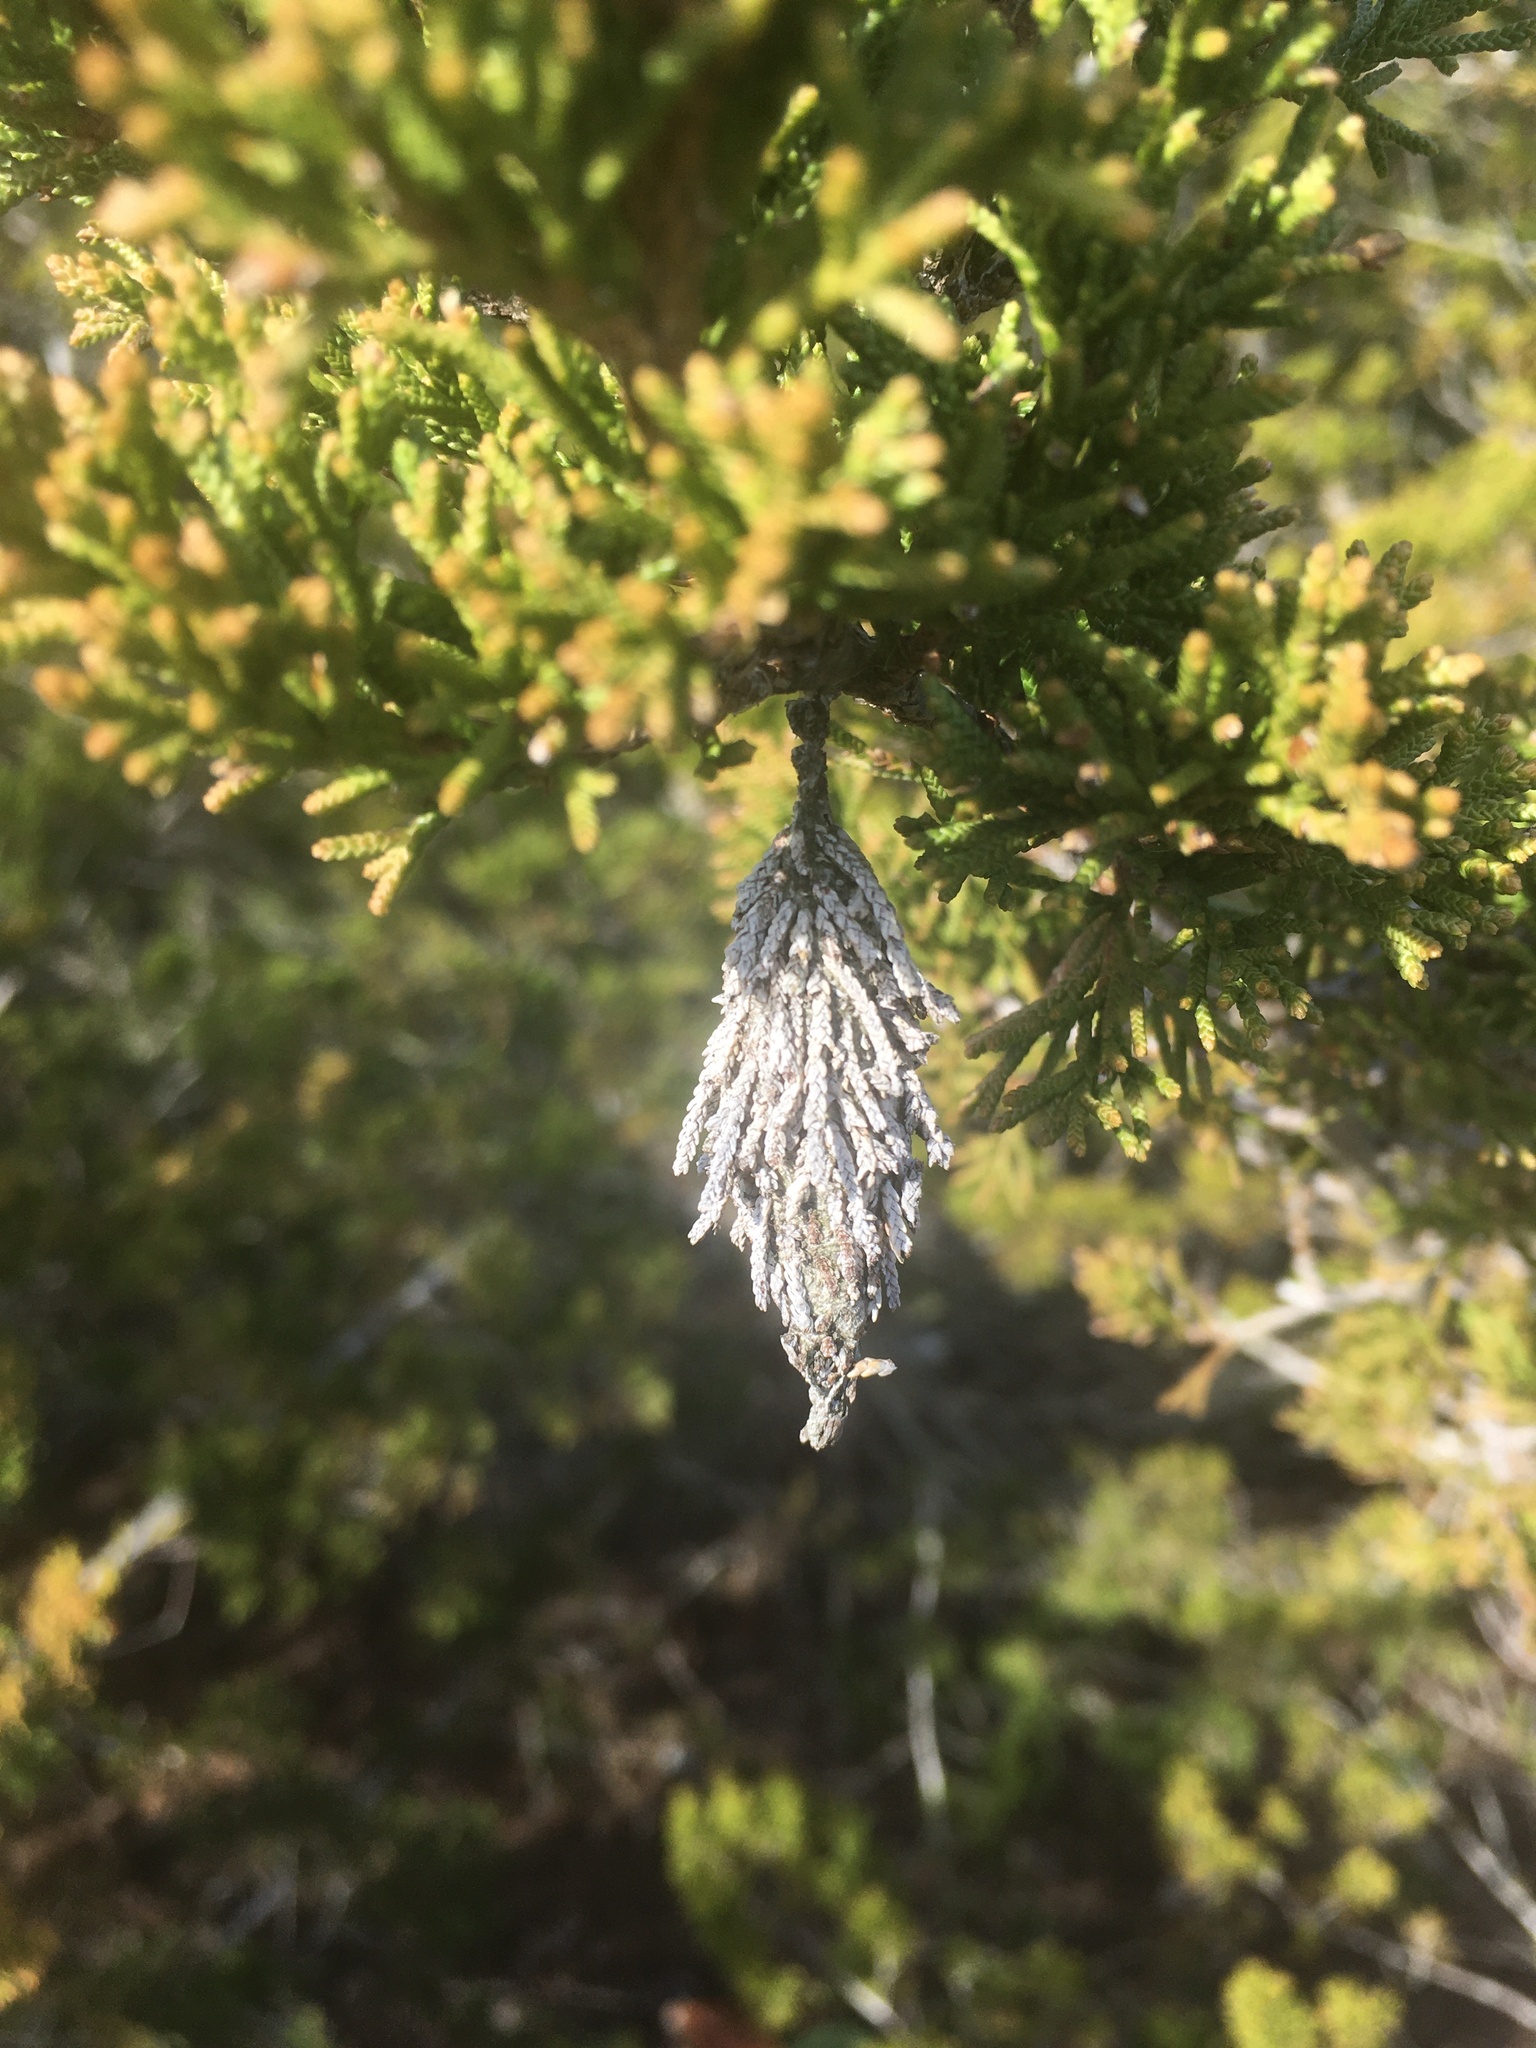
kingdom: Animalia
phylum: Arthropoda
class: Insecta
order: Lepidoptera
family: Psychidae
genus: Thyridopteryx
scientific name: Thyridopteryx ephemeraeformis
